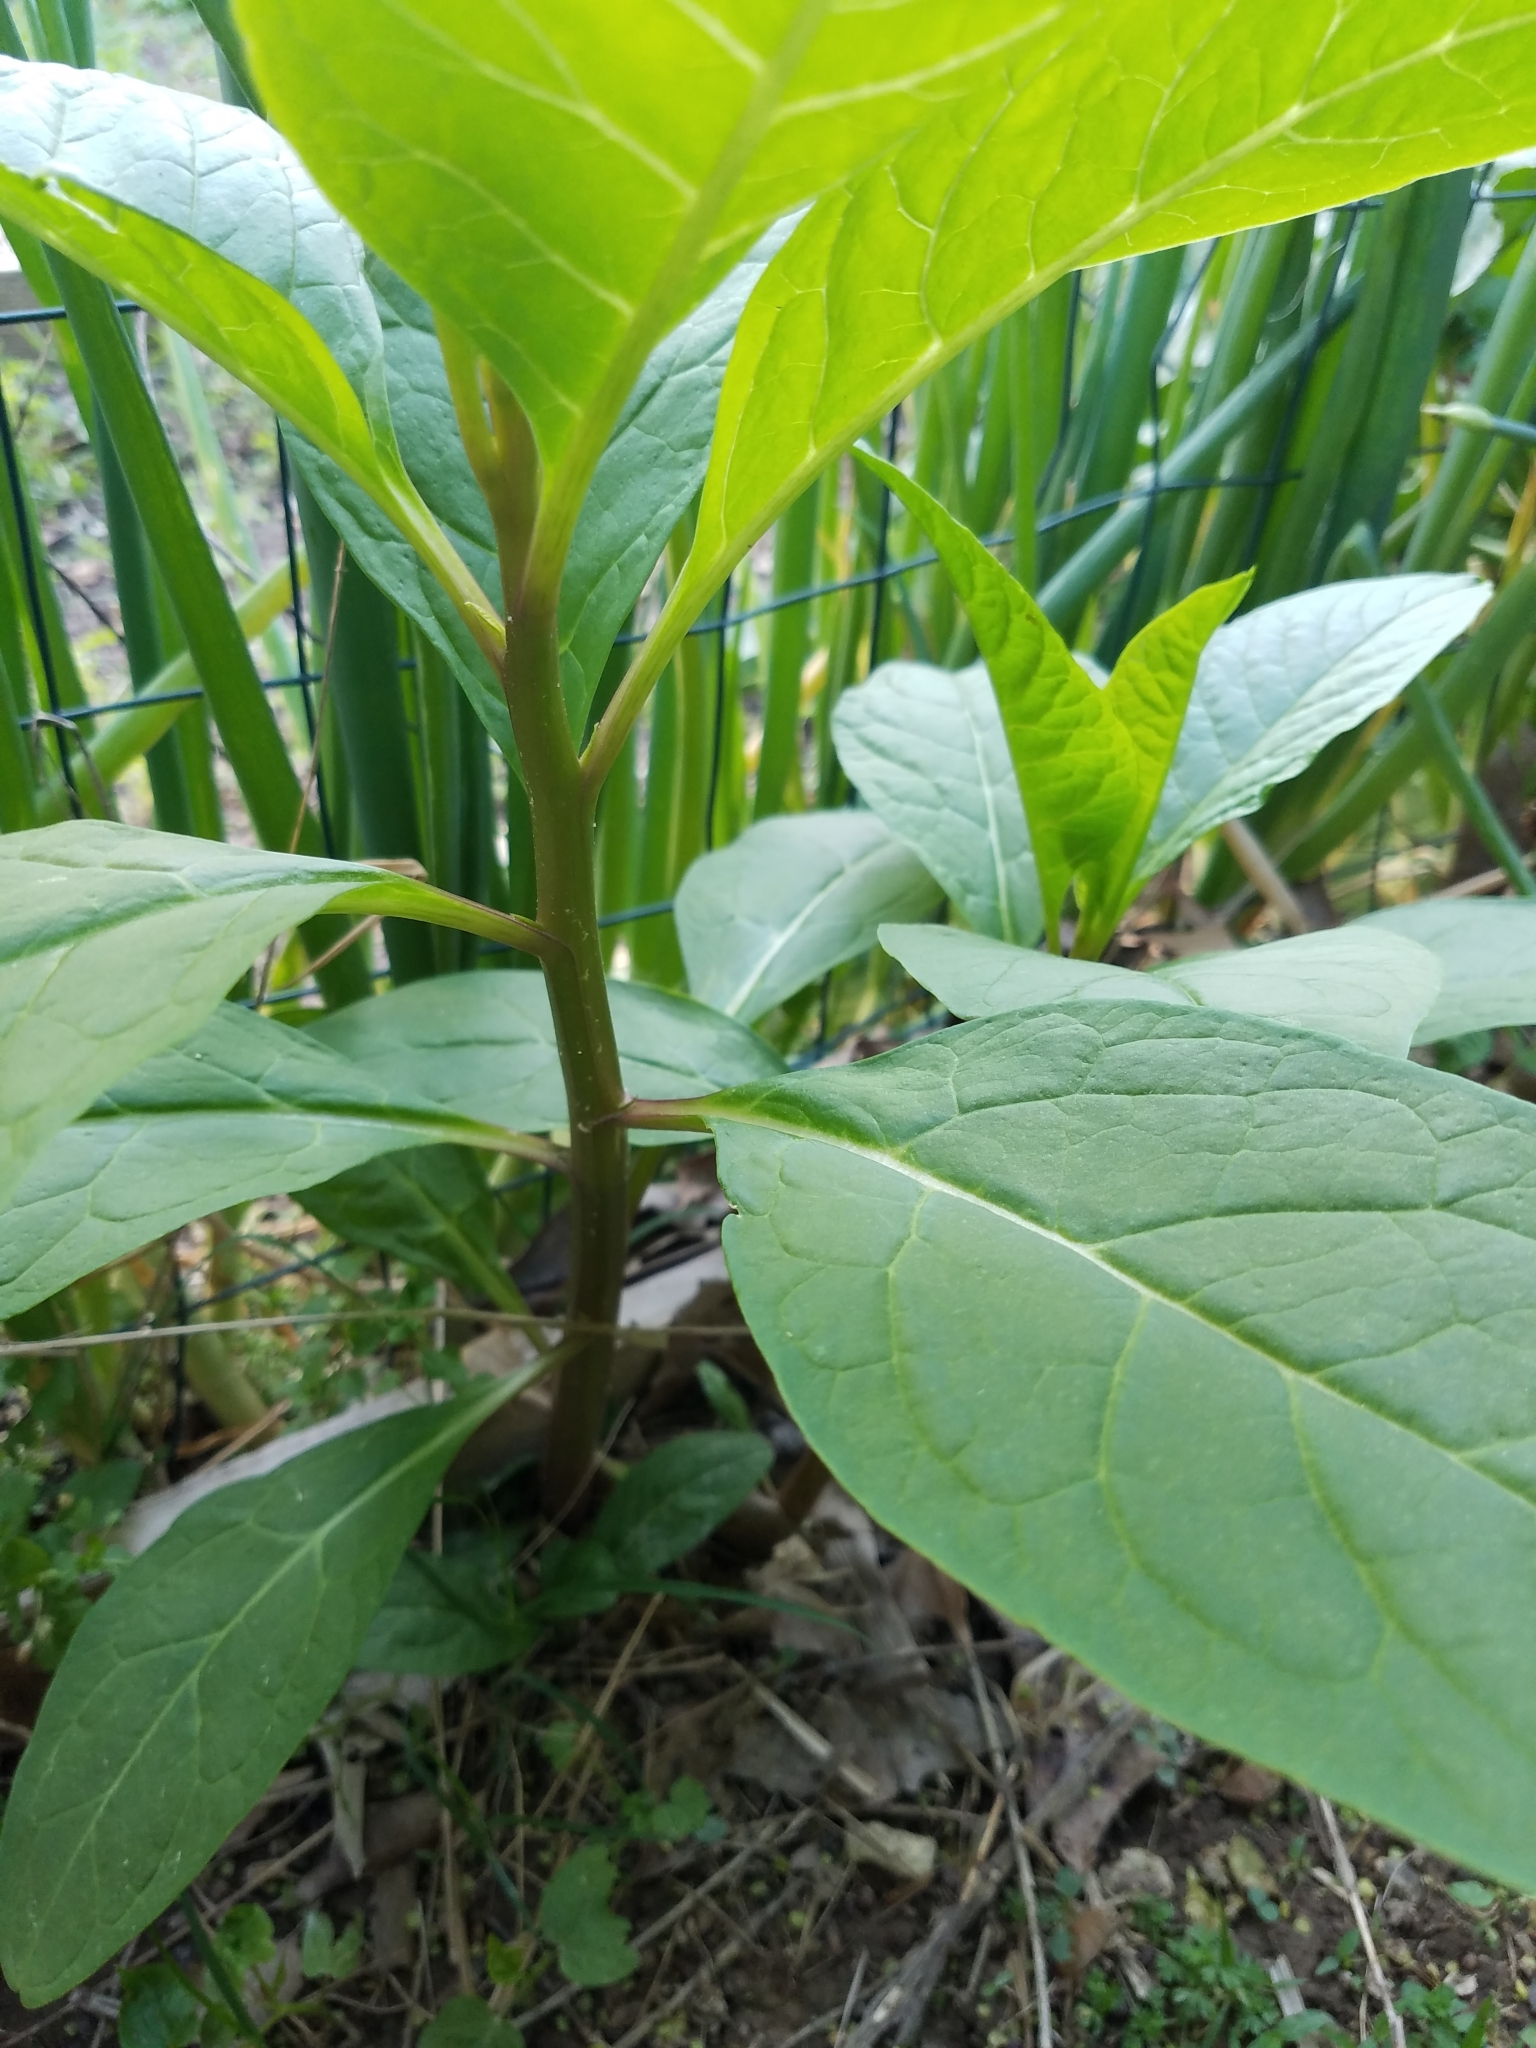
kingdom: Plantae
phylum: Tracheophyta
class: Magnoliopsida
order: Caryophyllales
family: Phytolaccaceae
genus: Phytolacca
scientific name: Phytolacca americana
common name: American pokeweed
